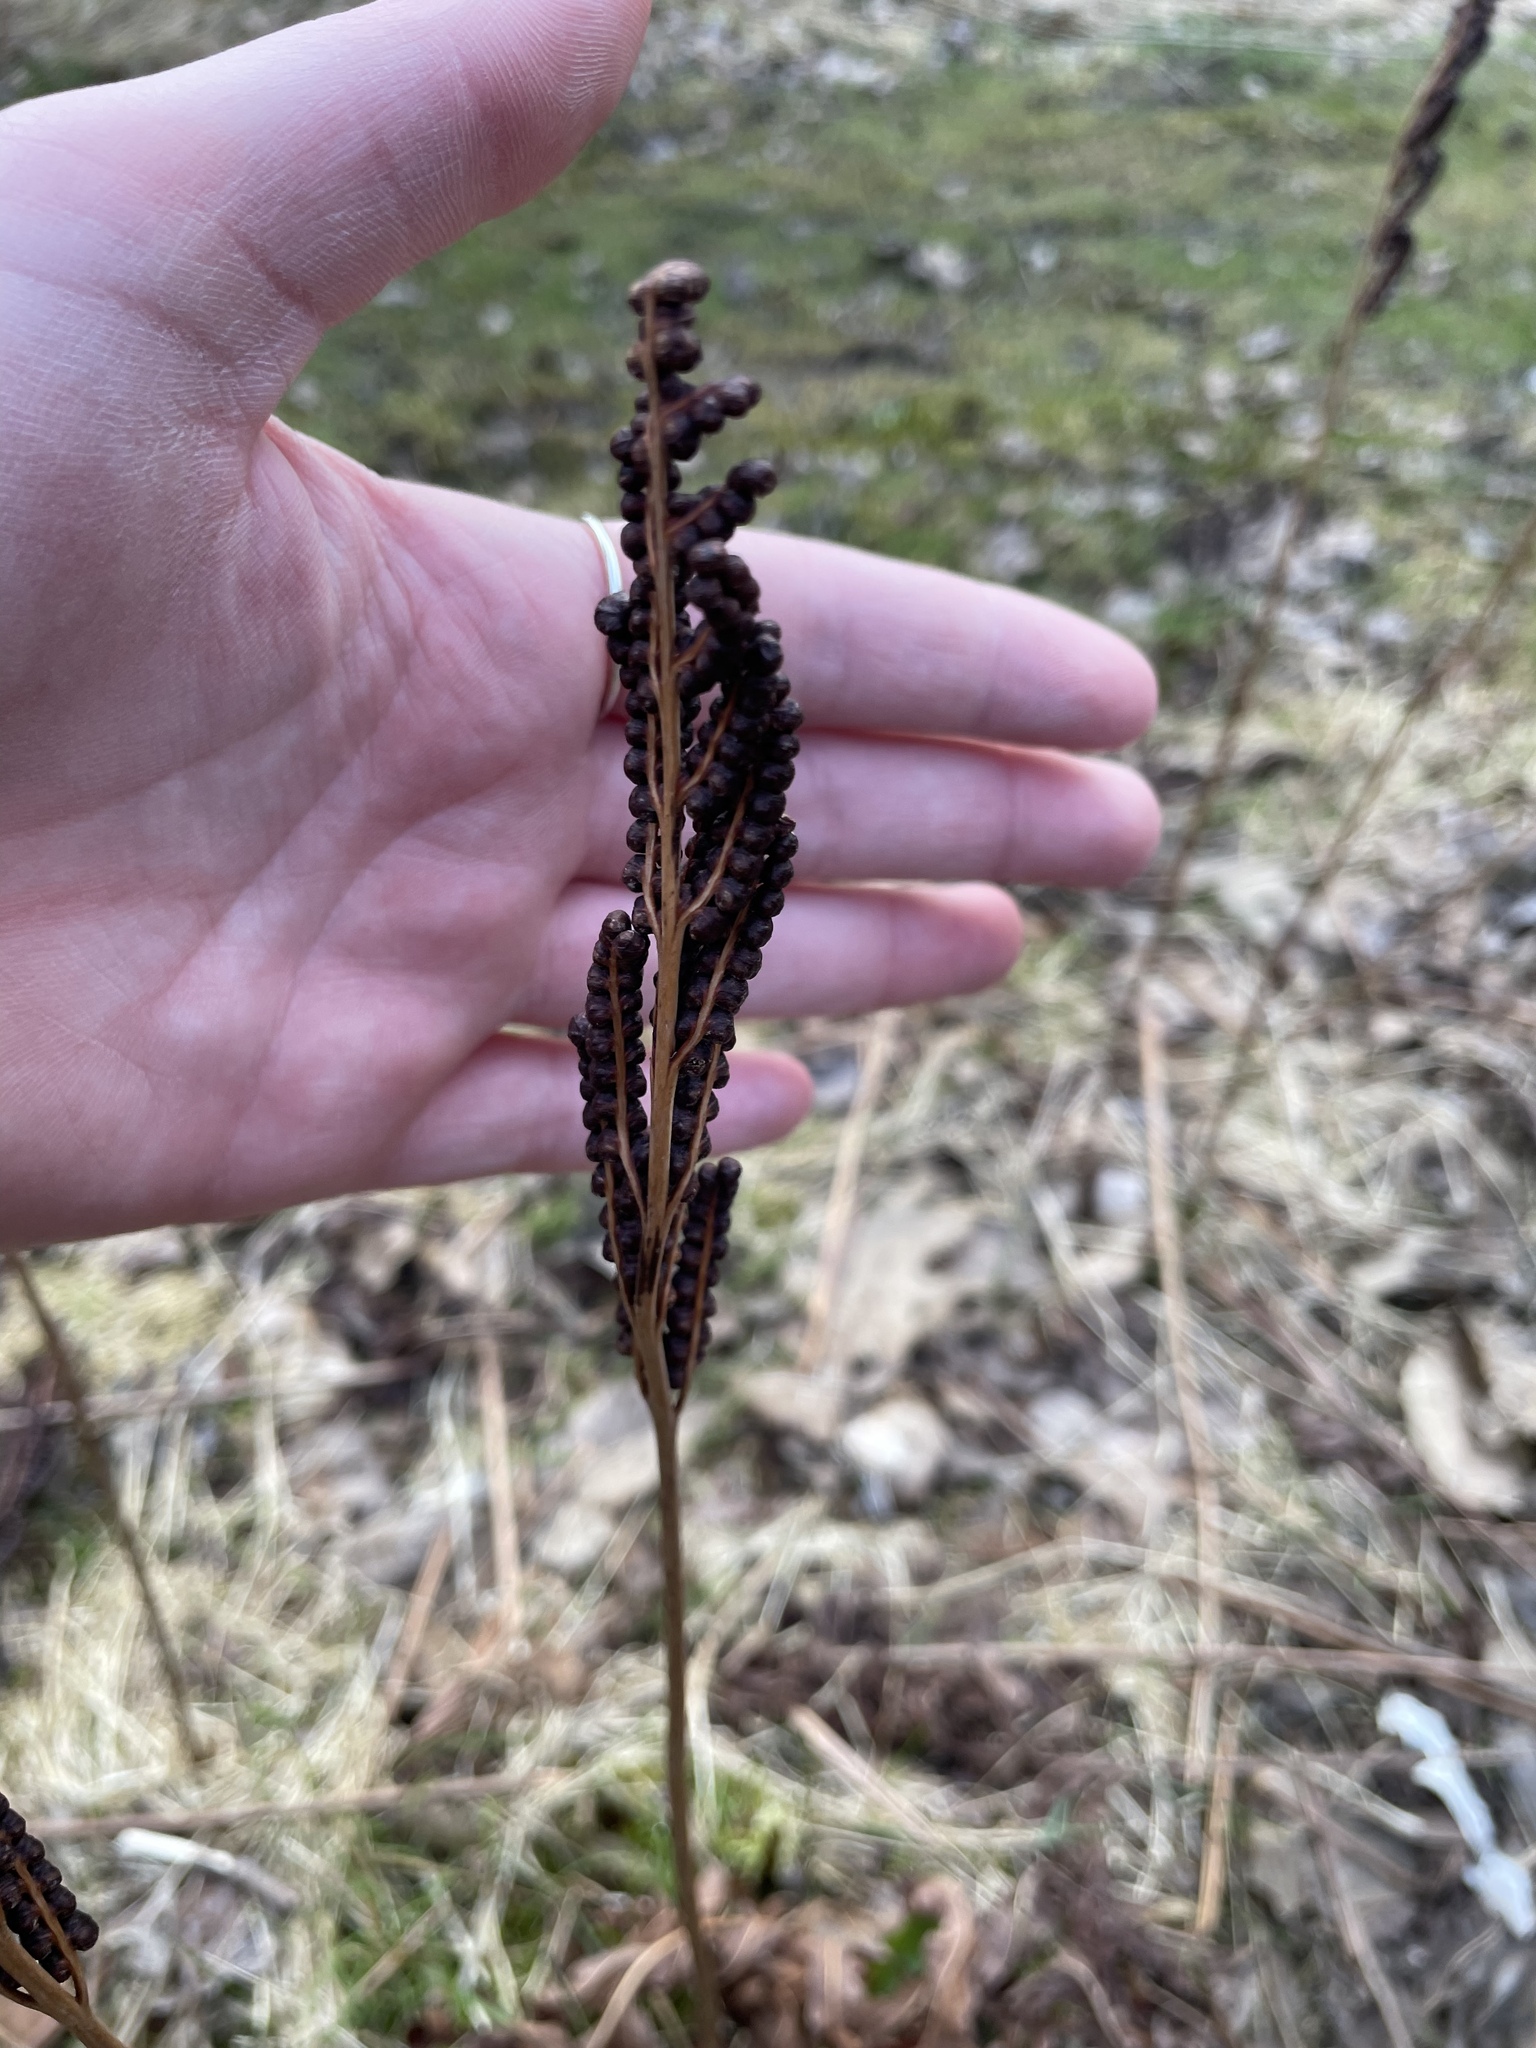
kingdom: Plantae
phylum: Tracheophyta
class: Polypodiopsida
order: Polypodiales
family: Onocleaceae
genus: Onoclea
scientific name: Onoclea sensibilis
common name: Sensitive fern
